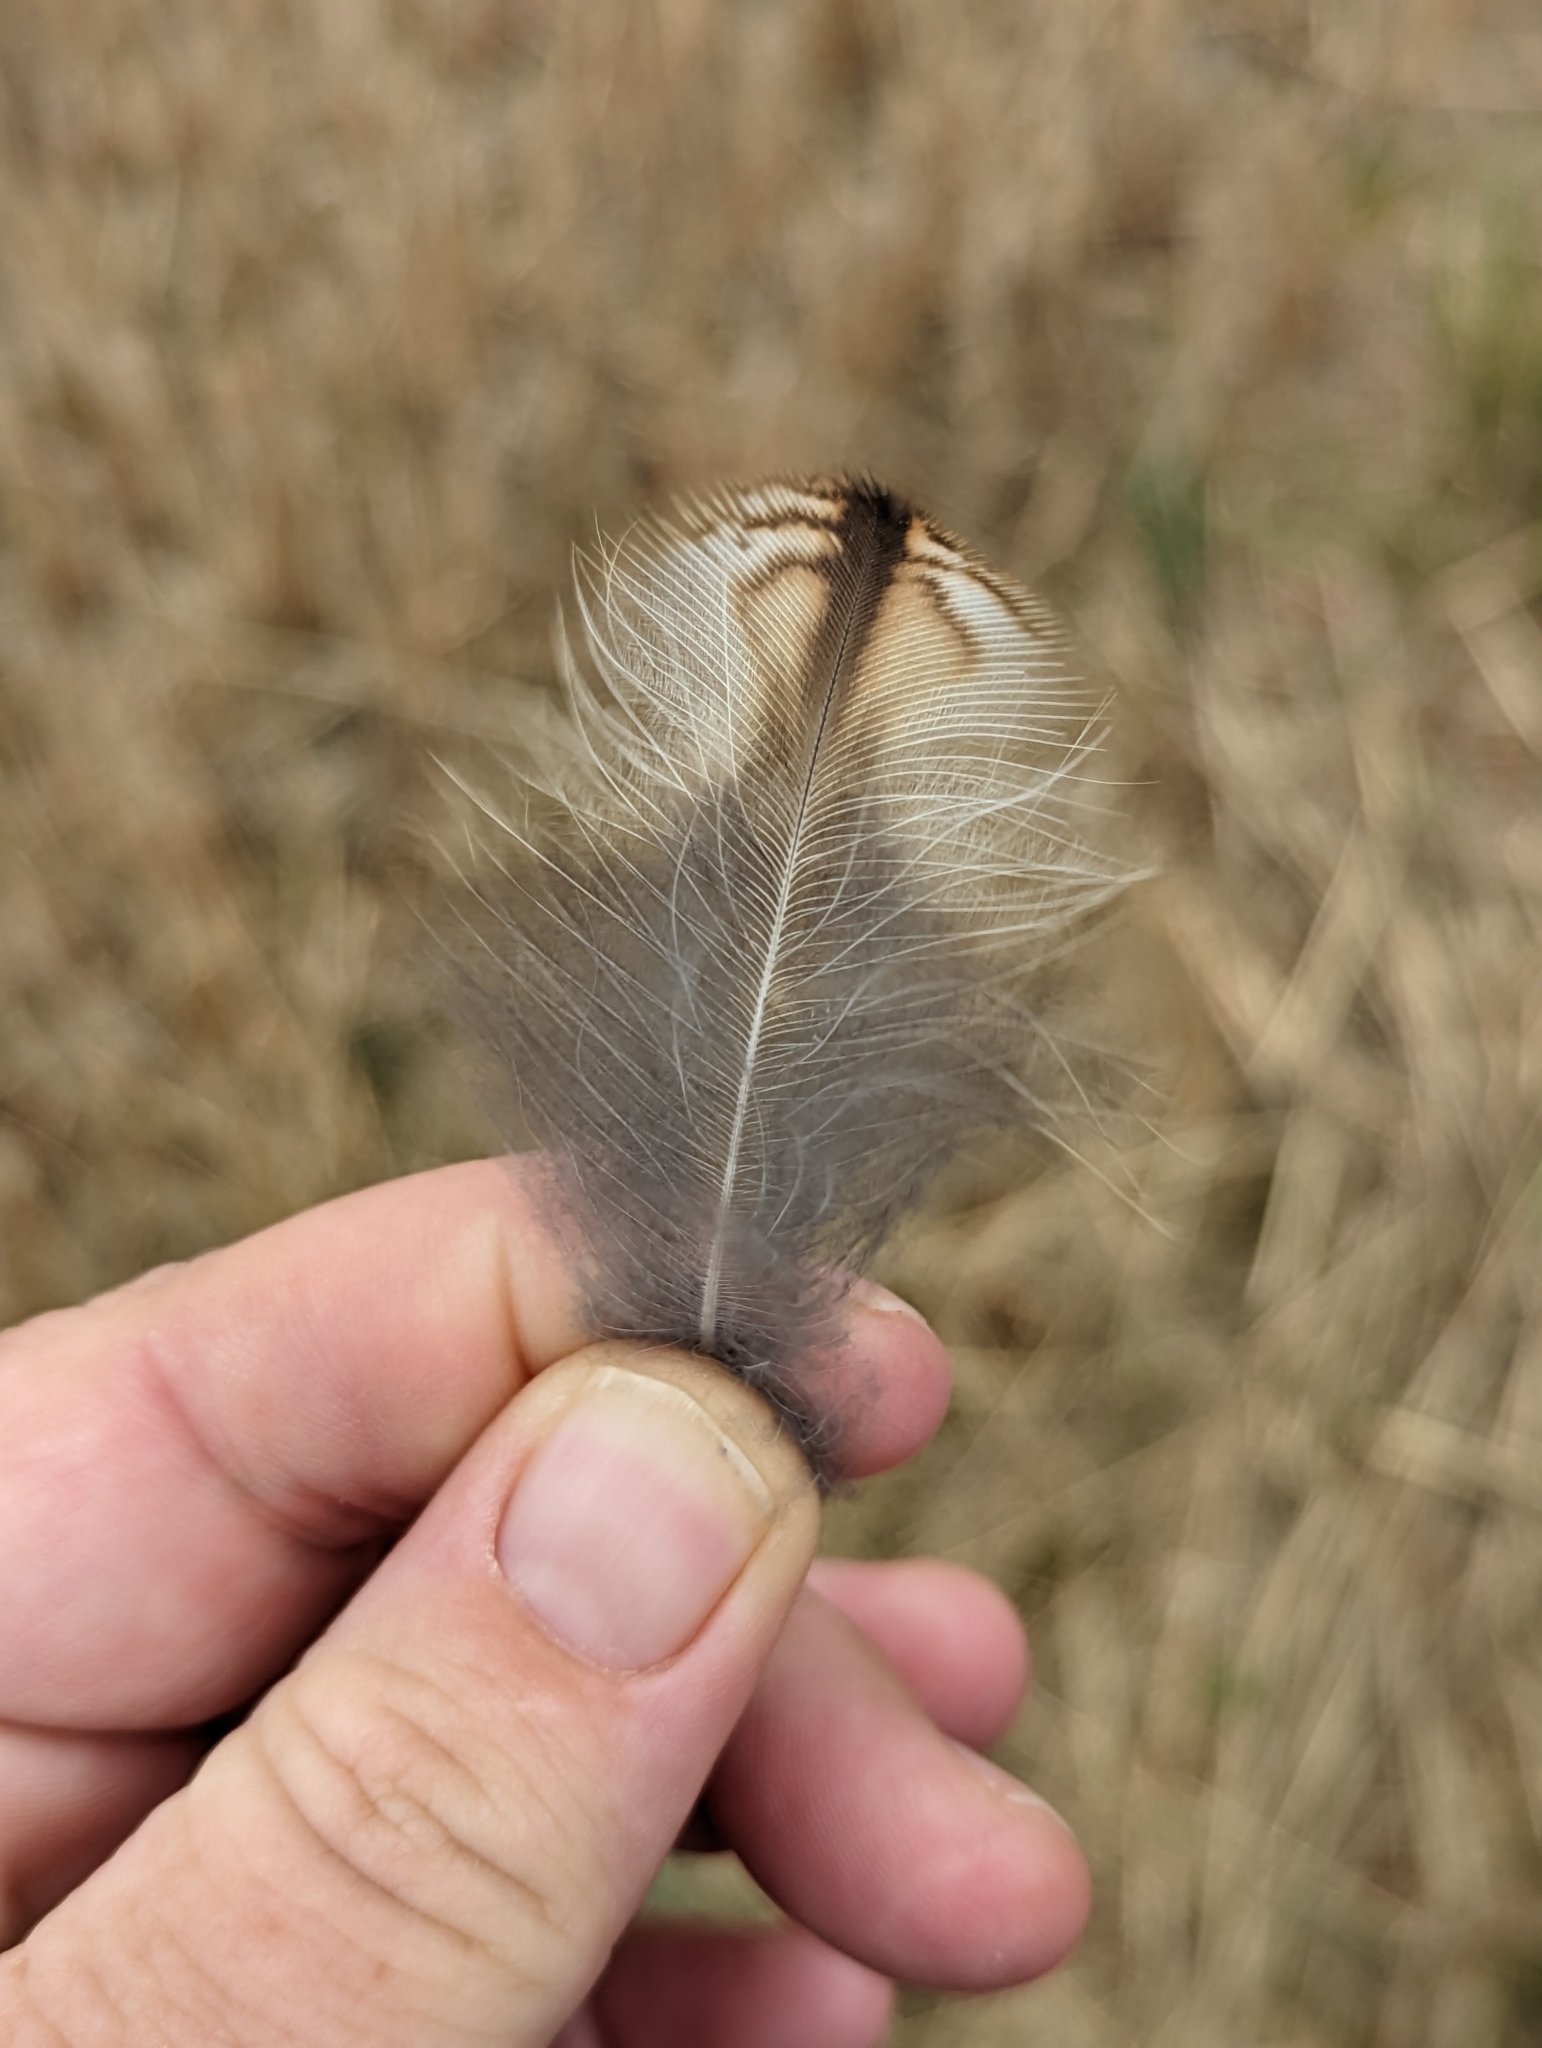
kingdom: Animalia
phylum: Chordata
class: Aves
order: Strigiformes
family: Strigidae
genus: Strix
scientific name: Strix aluco
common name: Tawny owl
